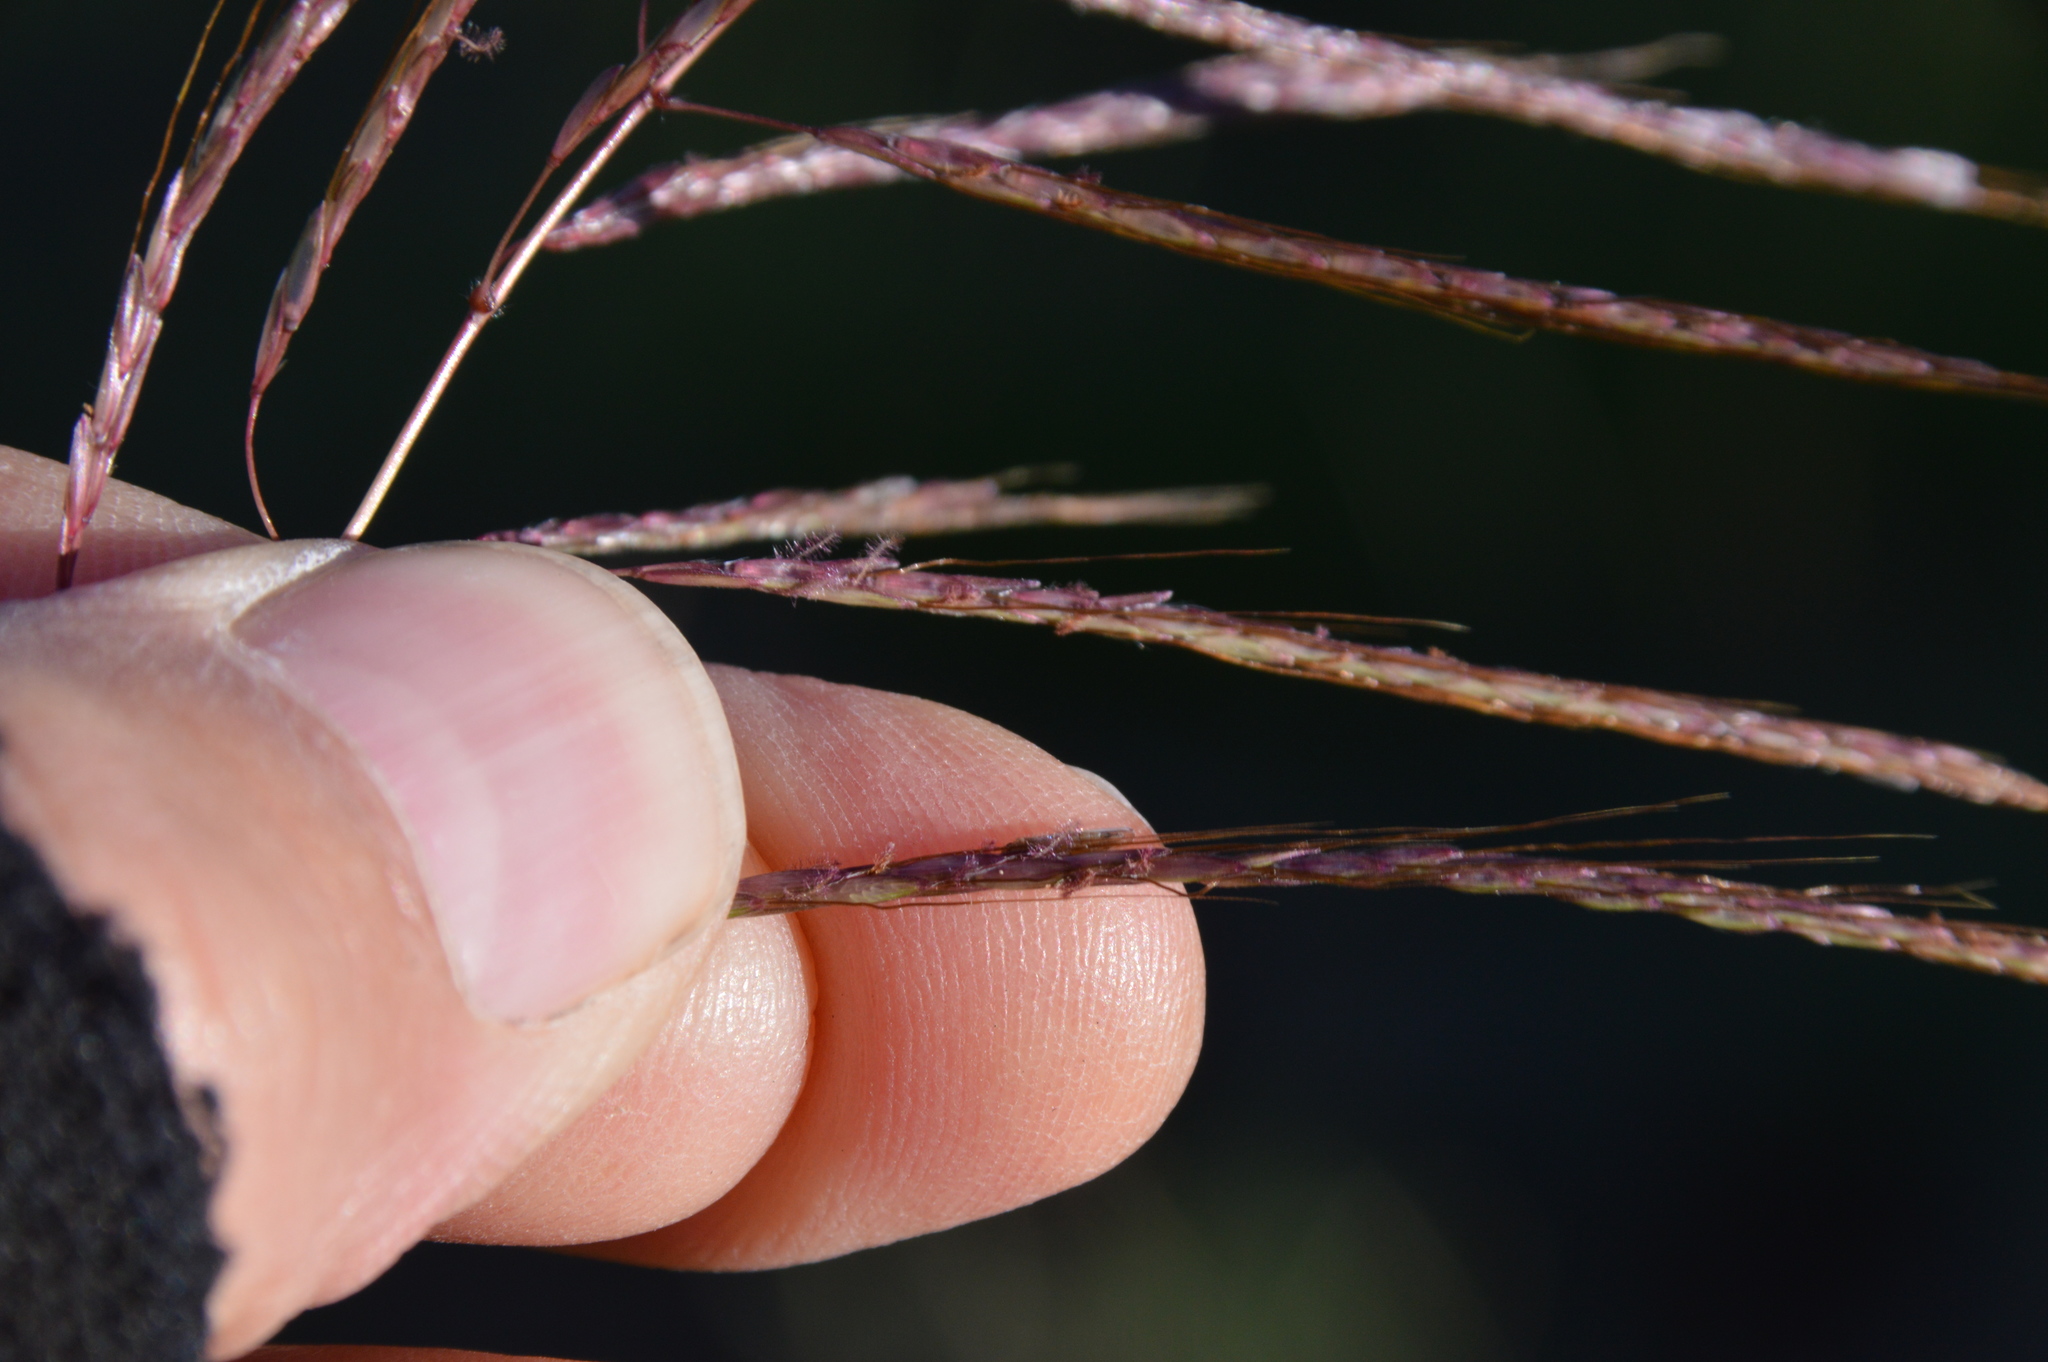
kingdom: Plantae
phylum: Tracheophyta
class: Liliopsida
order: Poales
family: Poaceae
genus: Bothriochloa
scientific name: Bothriochloa bladhii
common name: Caucasian bluestem
